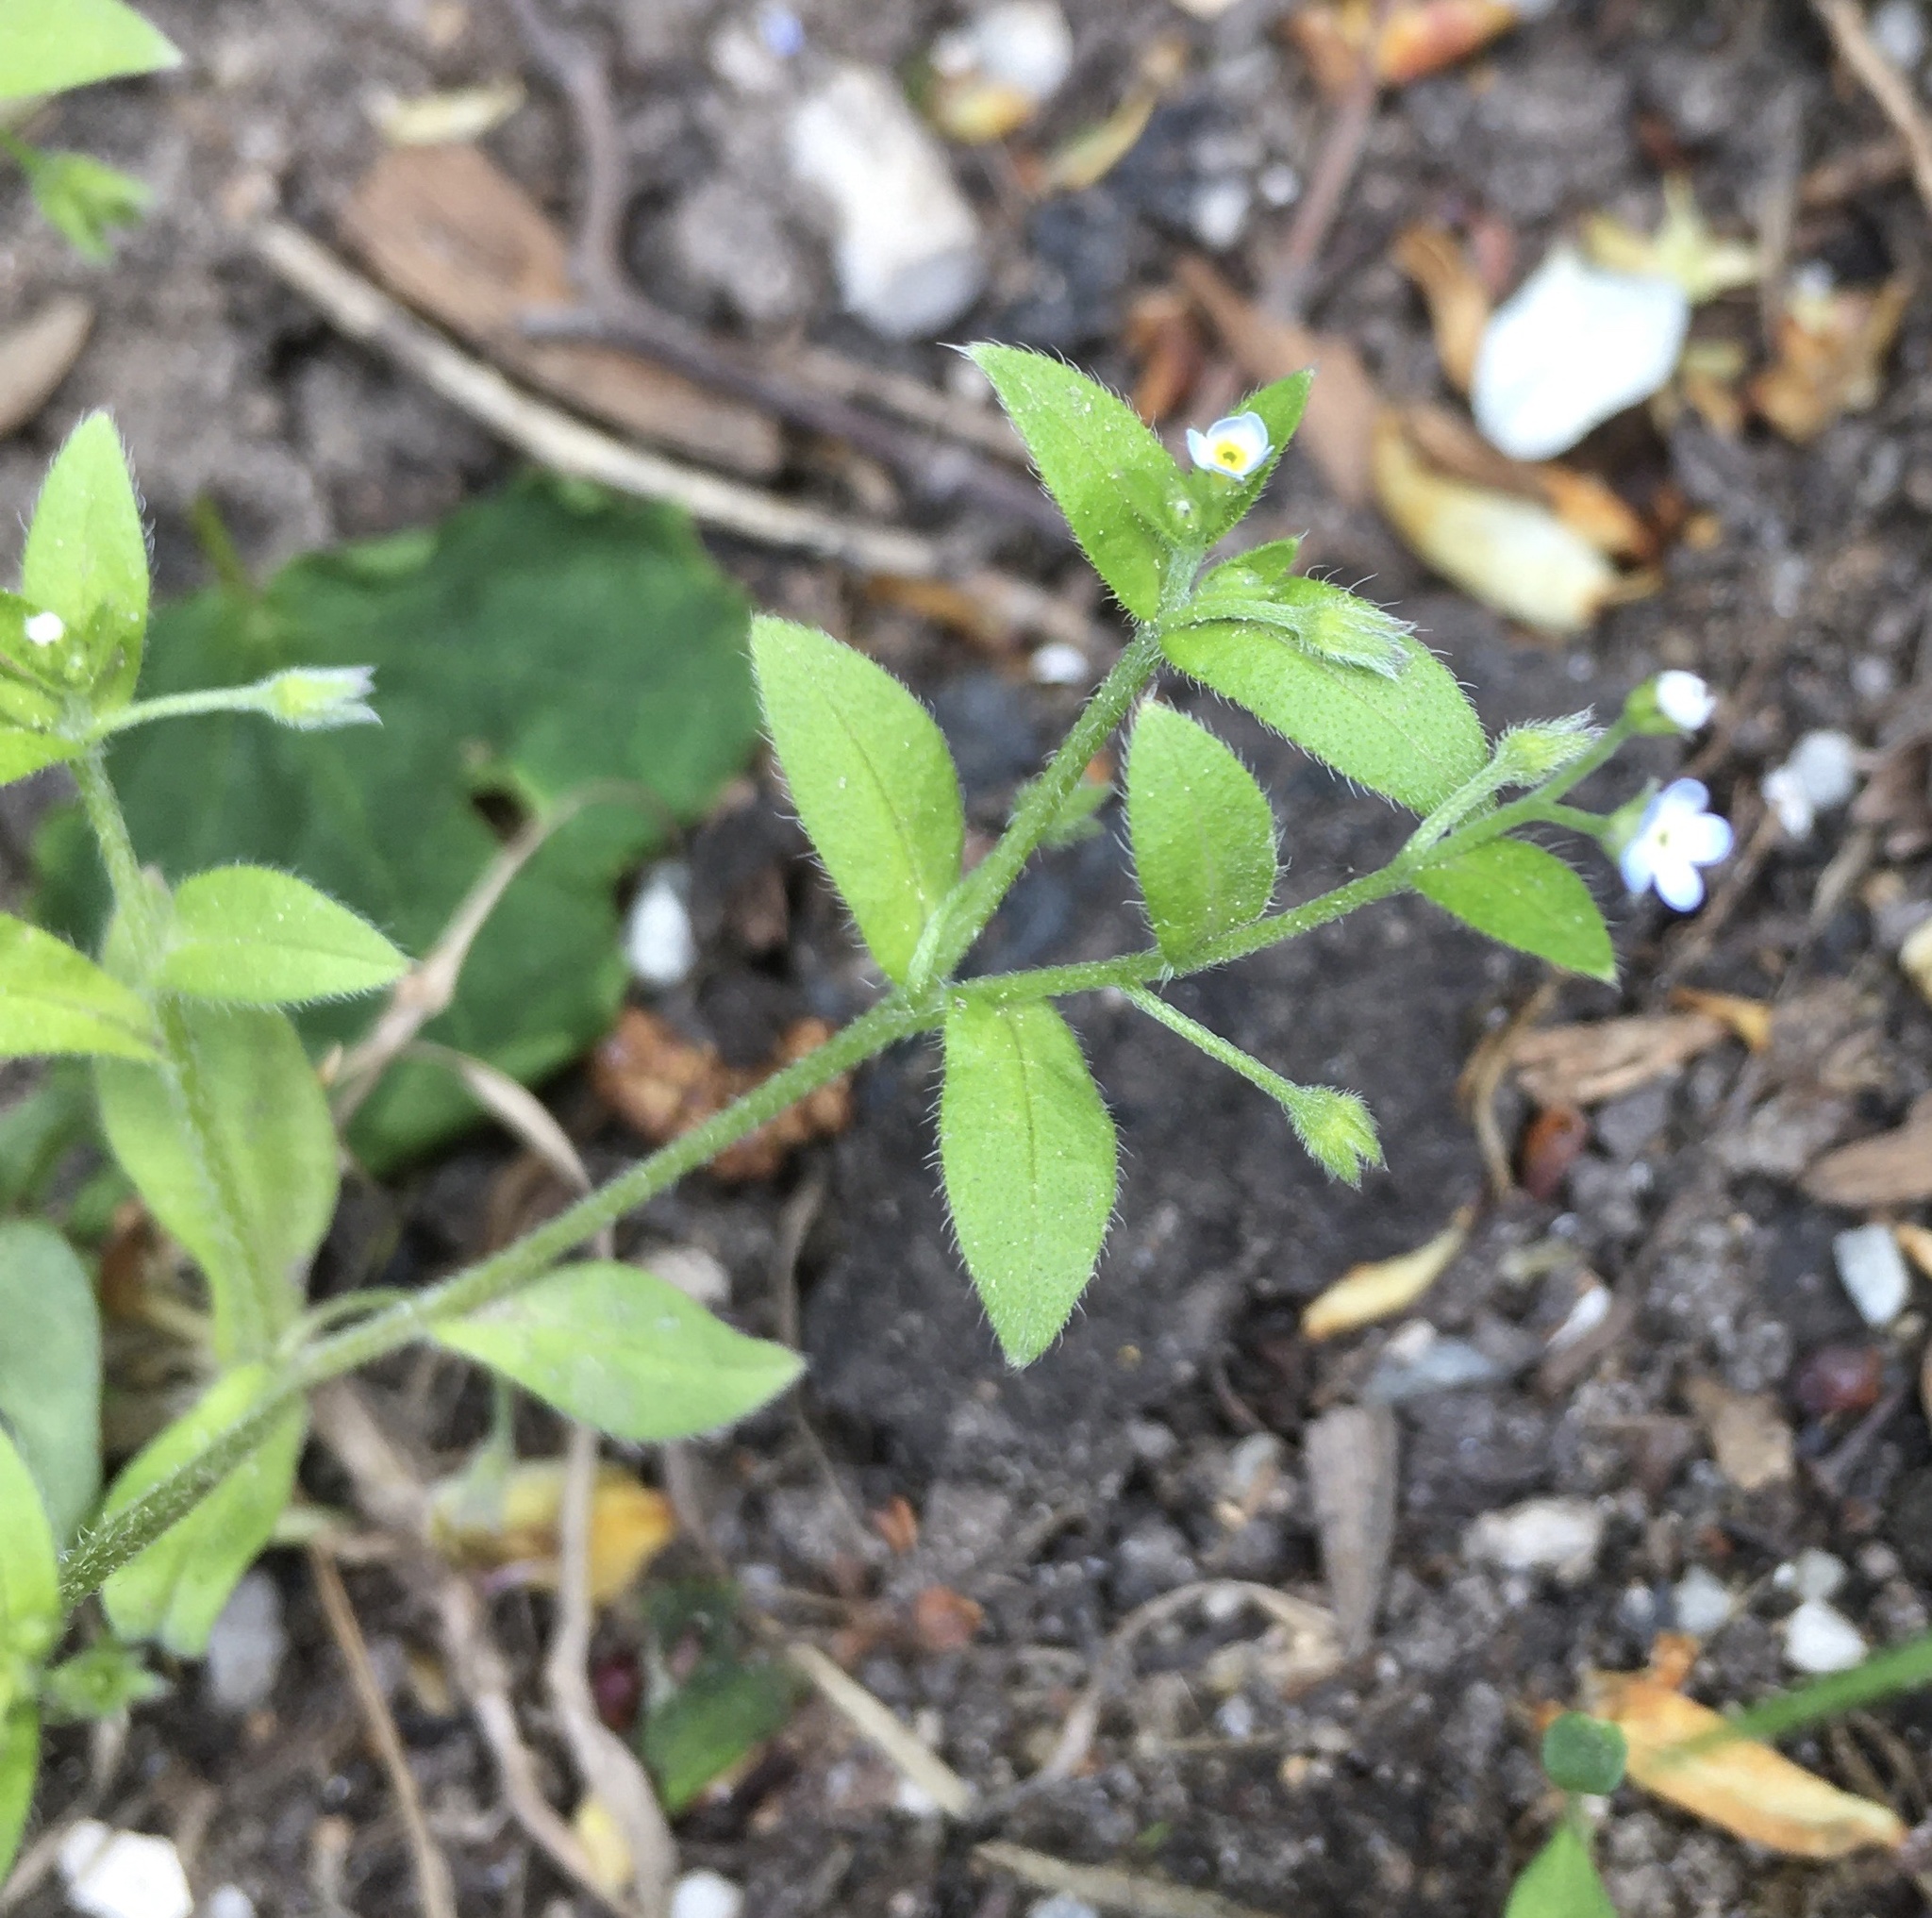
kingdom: Plantae
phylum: Tracheophyta
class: Magnoliopsida
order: Boraginales
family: Boraginaceae
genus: Myosotis
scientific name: Myosotis sparsiflora
